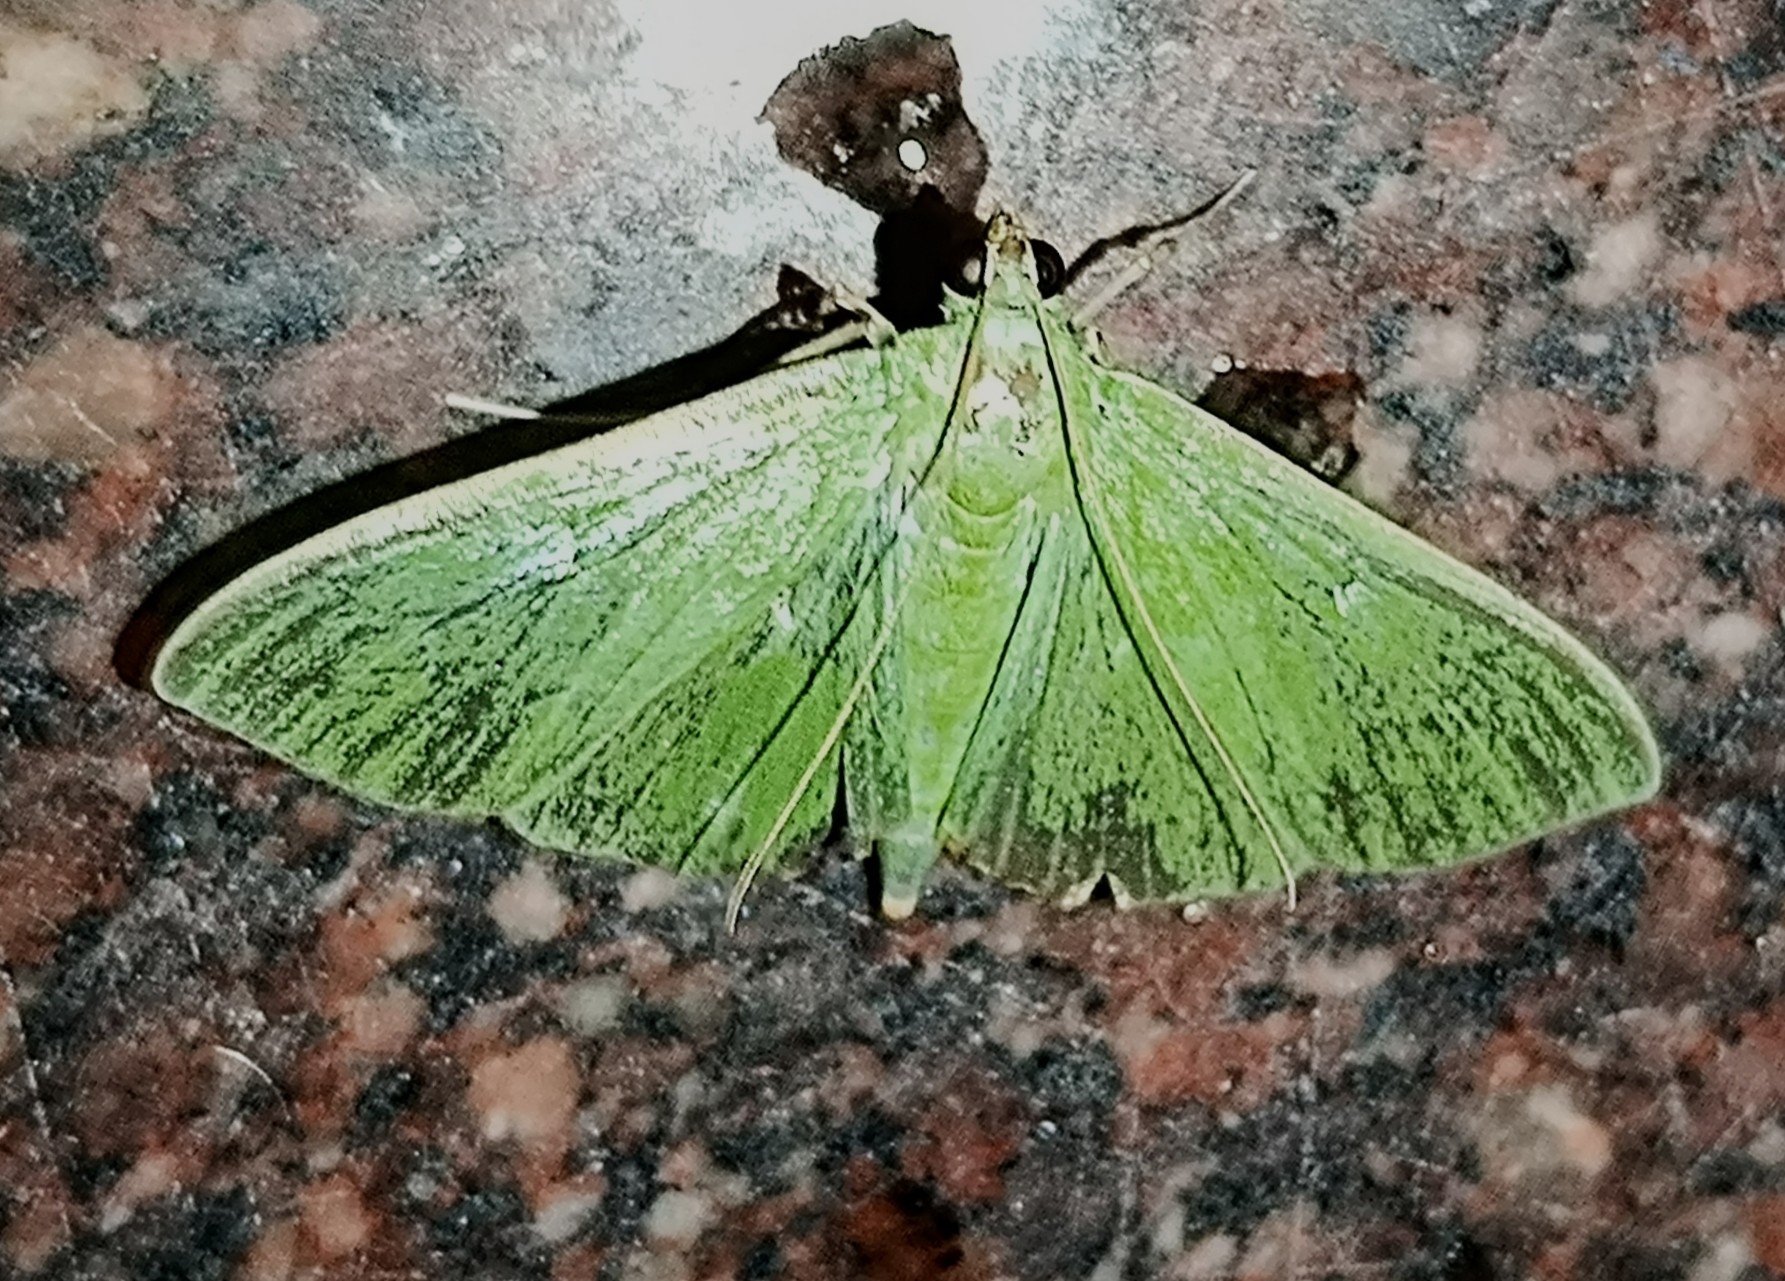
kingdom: Animalia
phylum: Arthropoda
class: Insecta
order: Lepidoptera
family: Crambidae
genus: Parotis
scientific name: Parotis marginata
